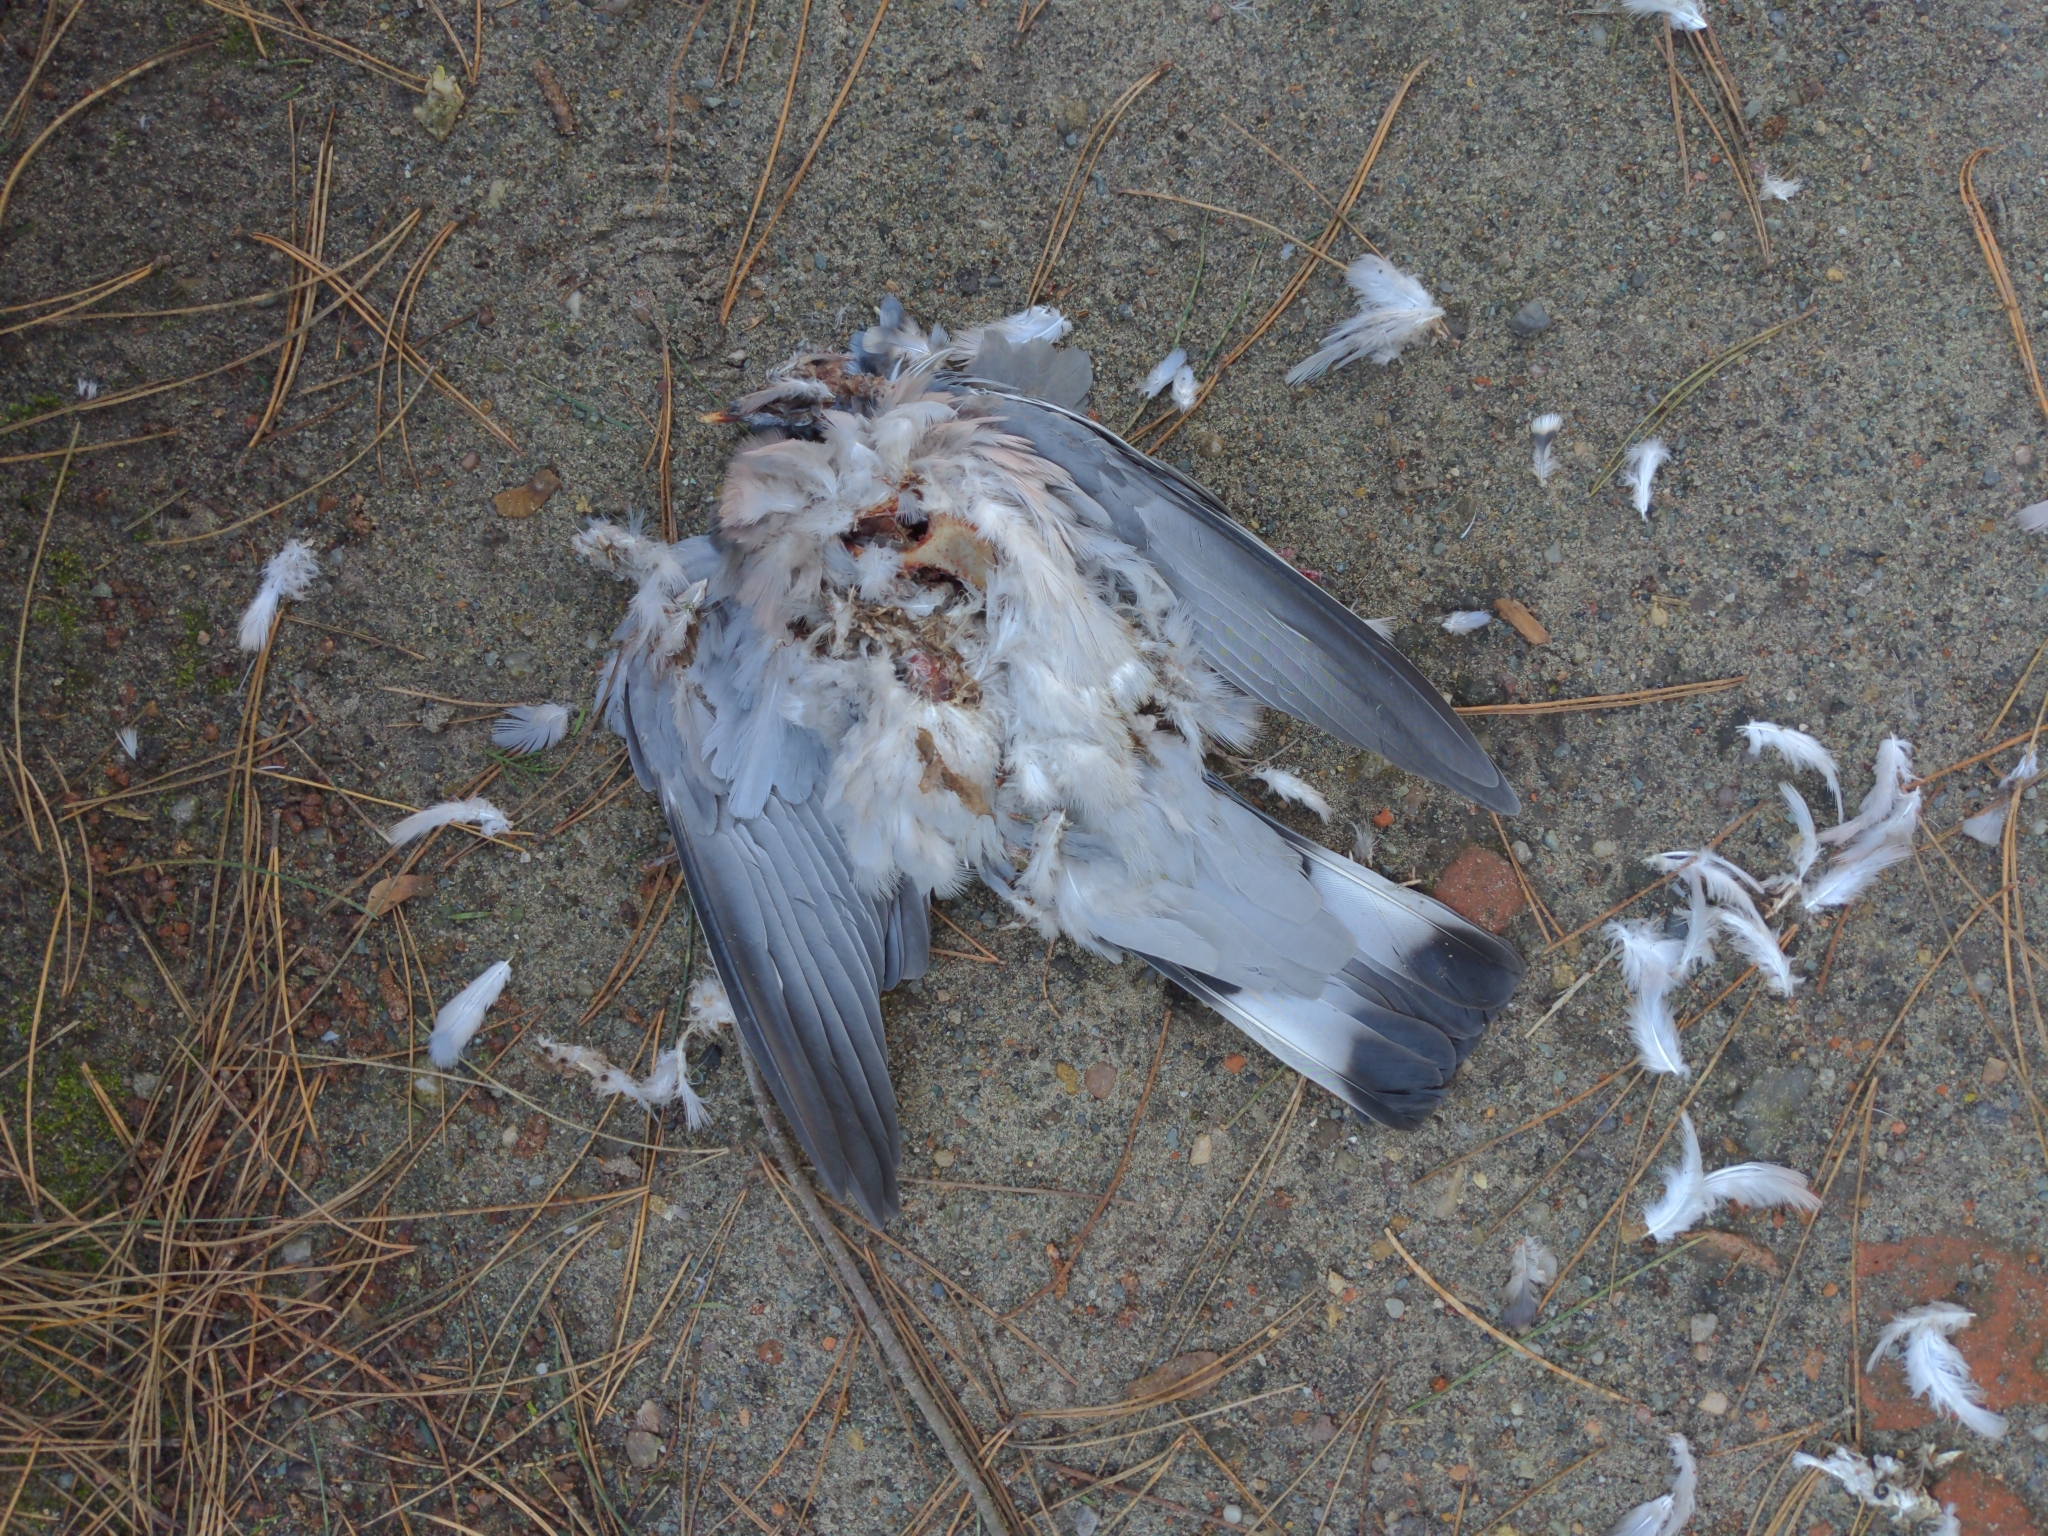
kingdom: Animalia
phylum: Chordata
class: Aves
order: Columbiformes
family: Columbidae
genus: Columba
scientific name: Columba palumbus
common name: Common wood pigeon
